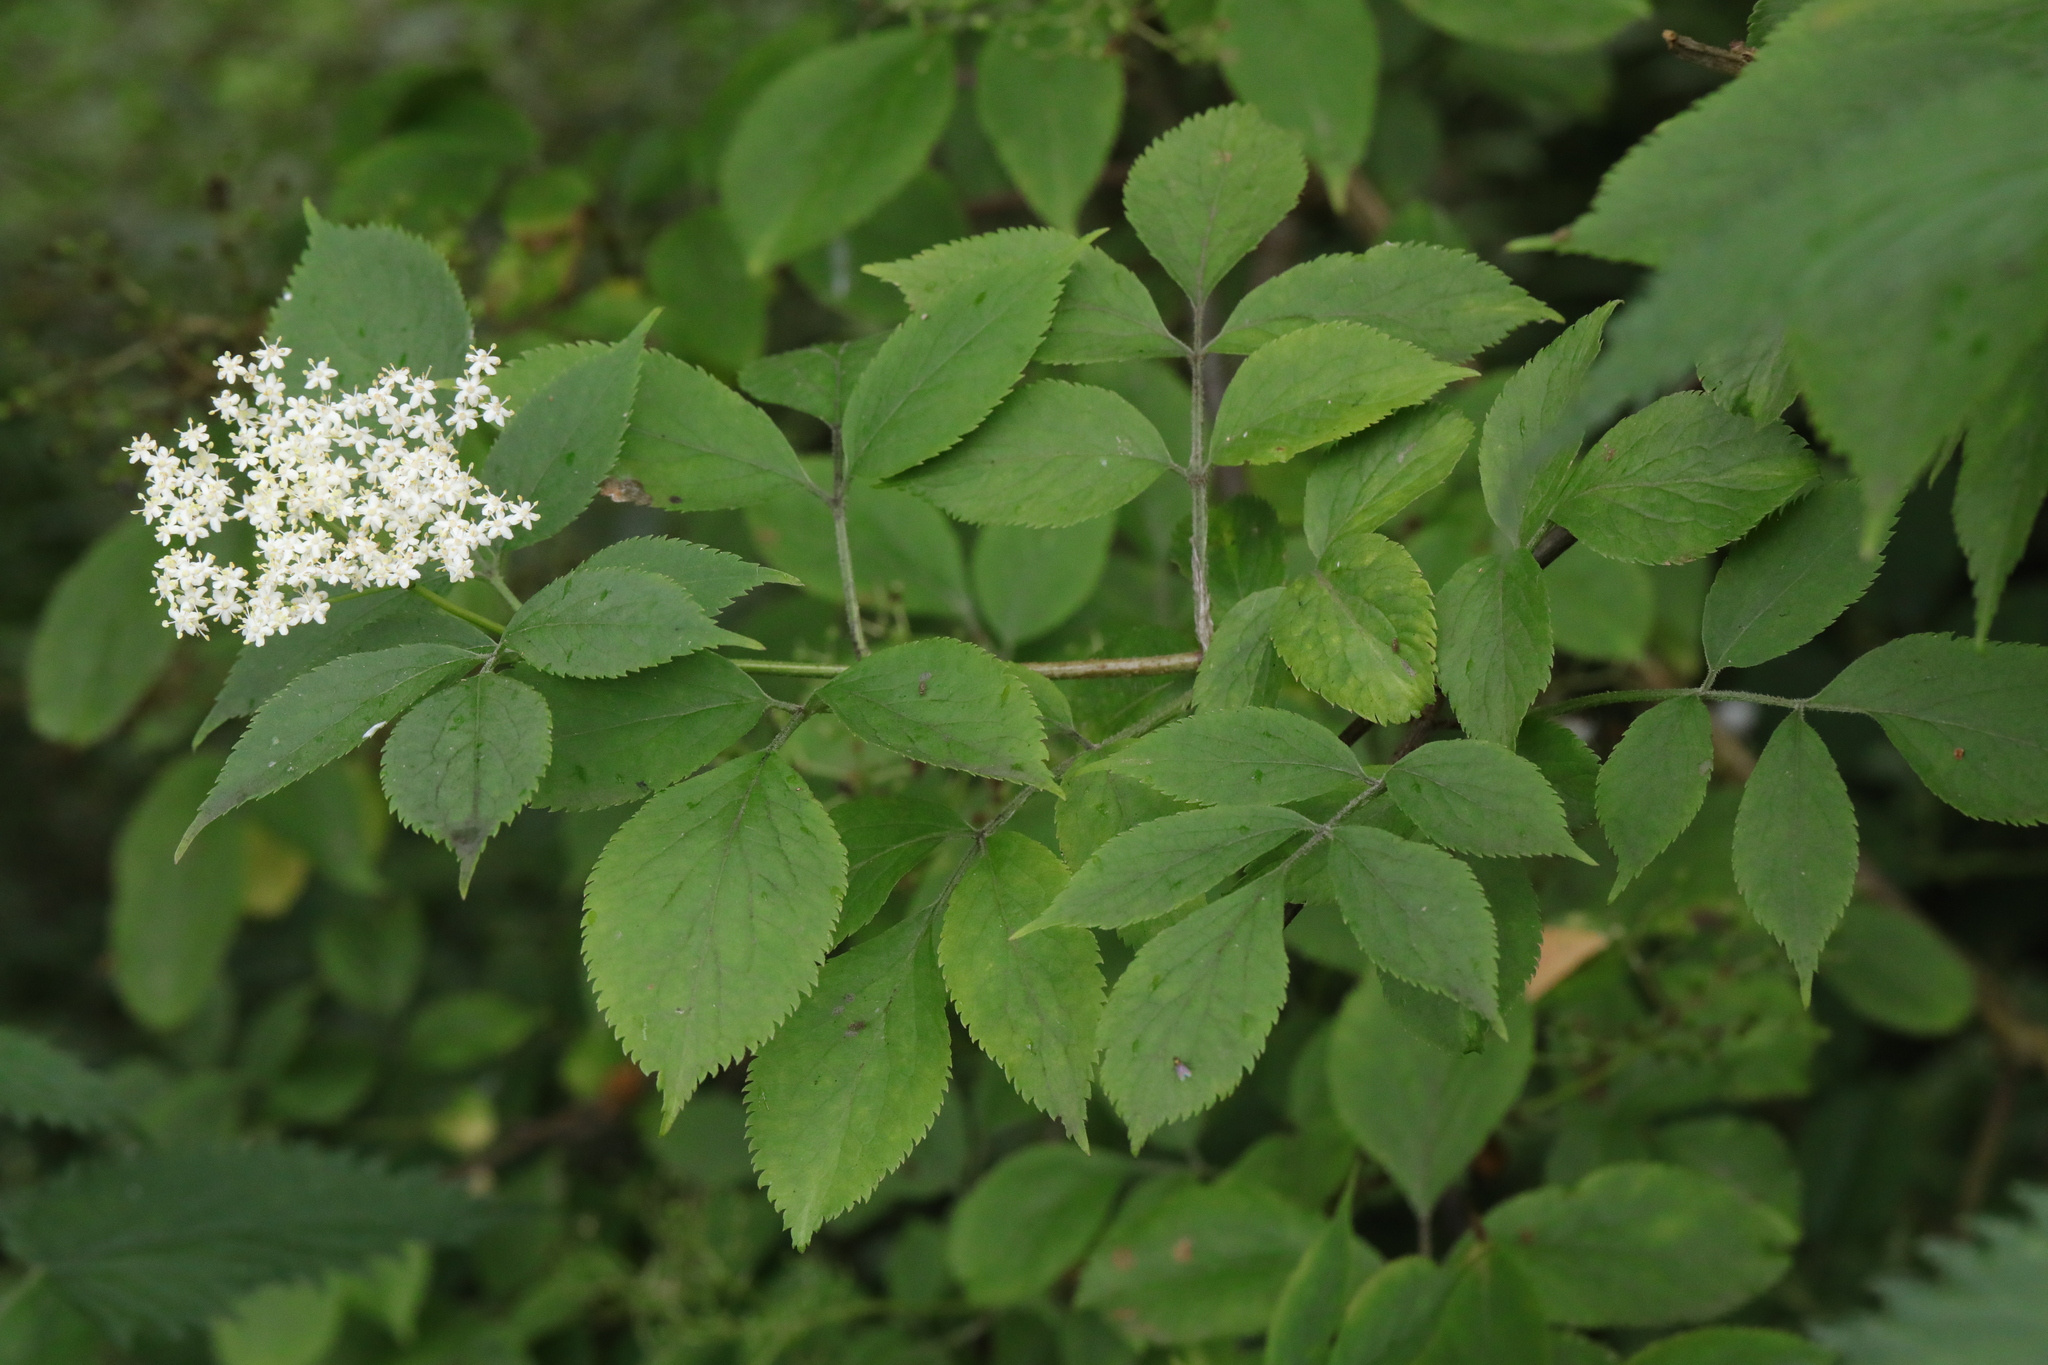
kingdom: Plantae
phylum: Tracheophyta
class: Magnoliopsida
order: Dipsacales
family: Viburnaceae
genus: Sambucus
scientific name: Sambucus nigra
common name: Elder
